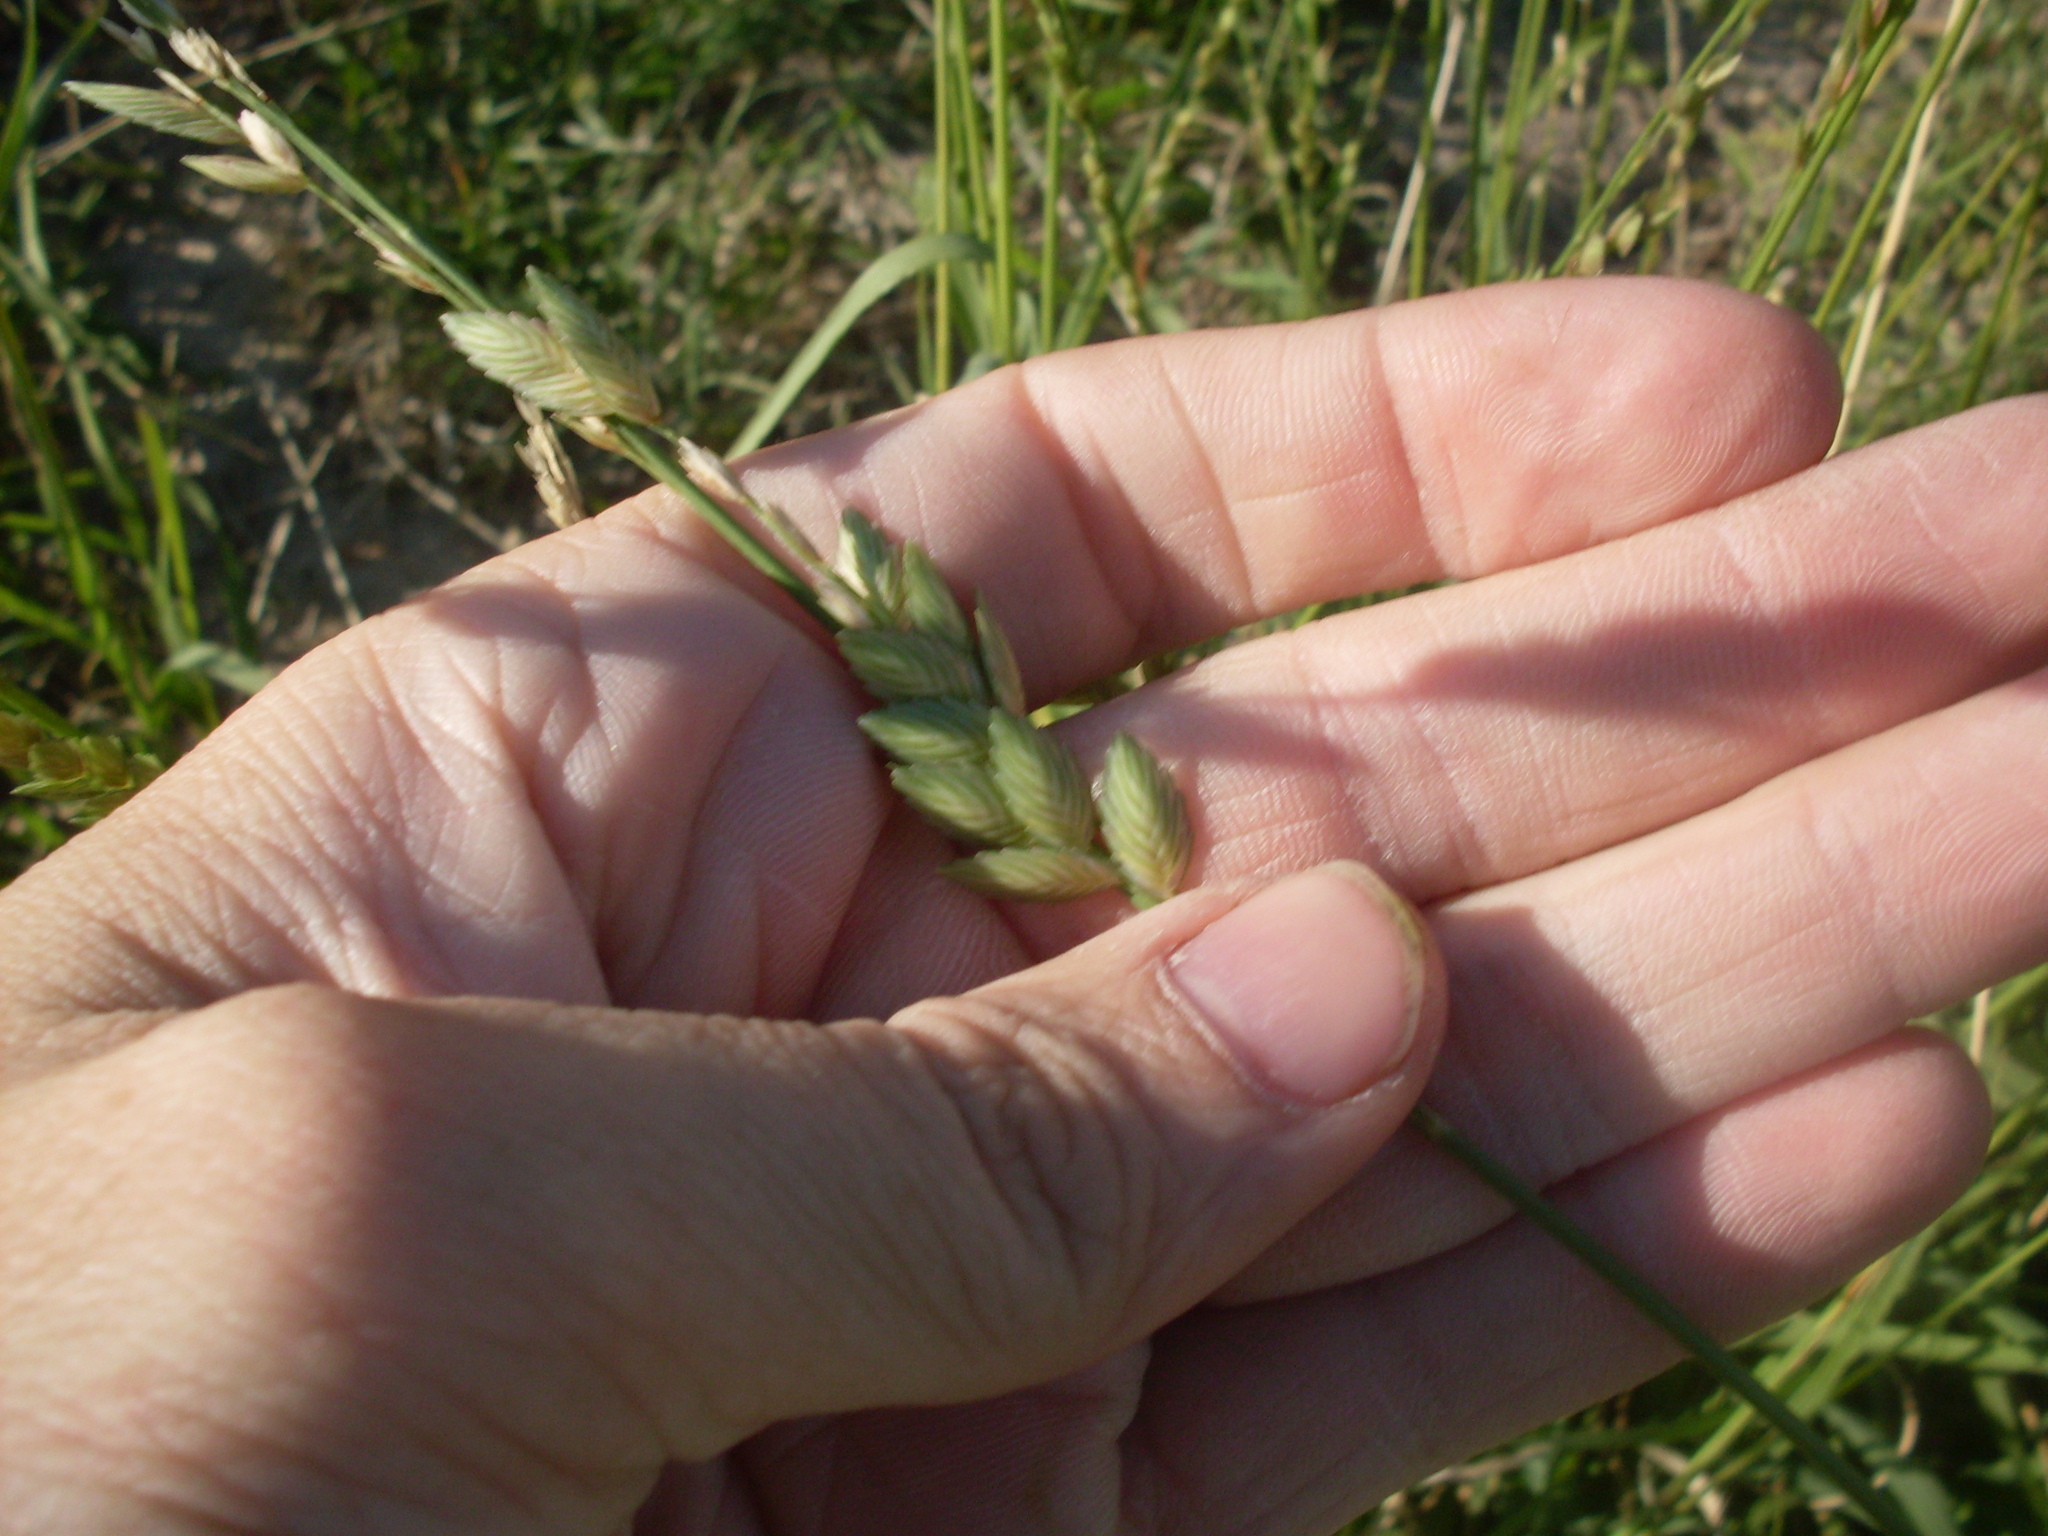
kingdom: Plantae
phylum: Tracheophyta
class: Liliopsida
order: Poales
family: Poaceae
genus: Eragrostis
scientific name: Eragrostis superba
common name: Wilman lovegrass
